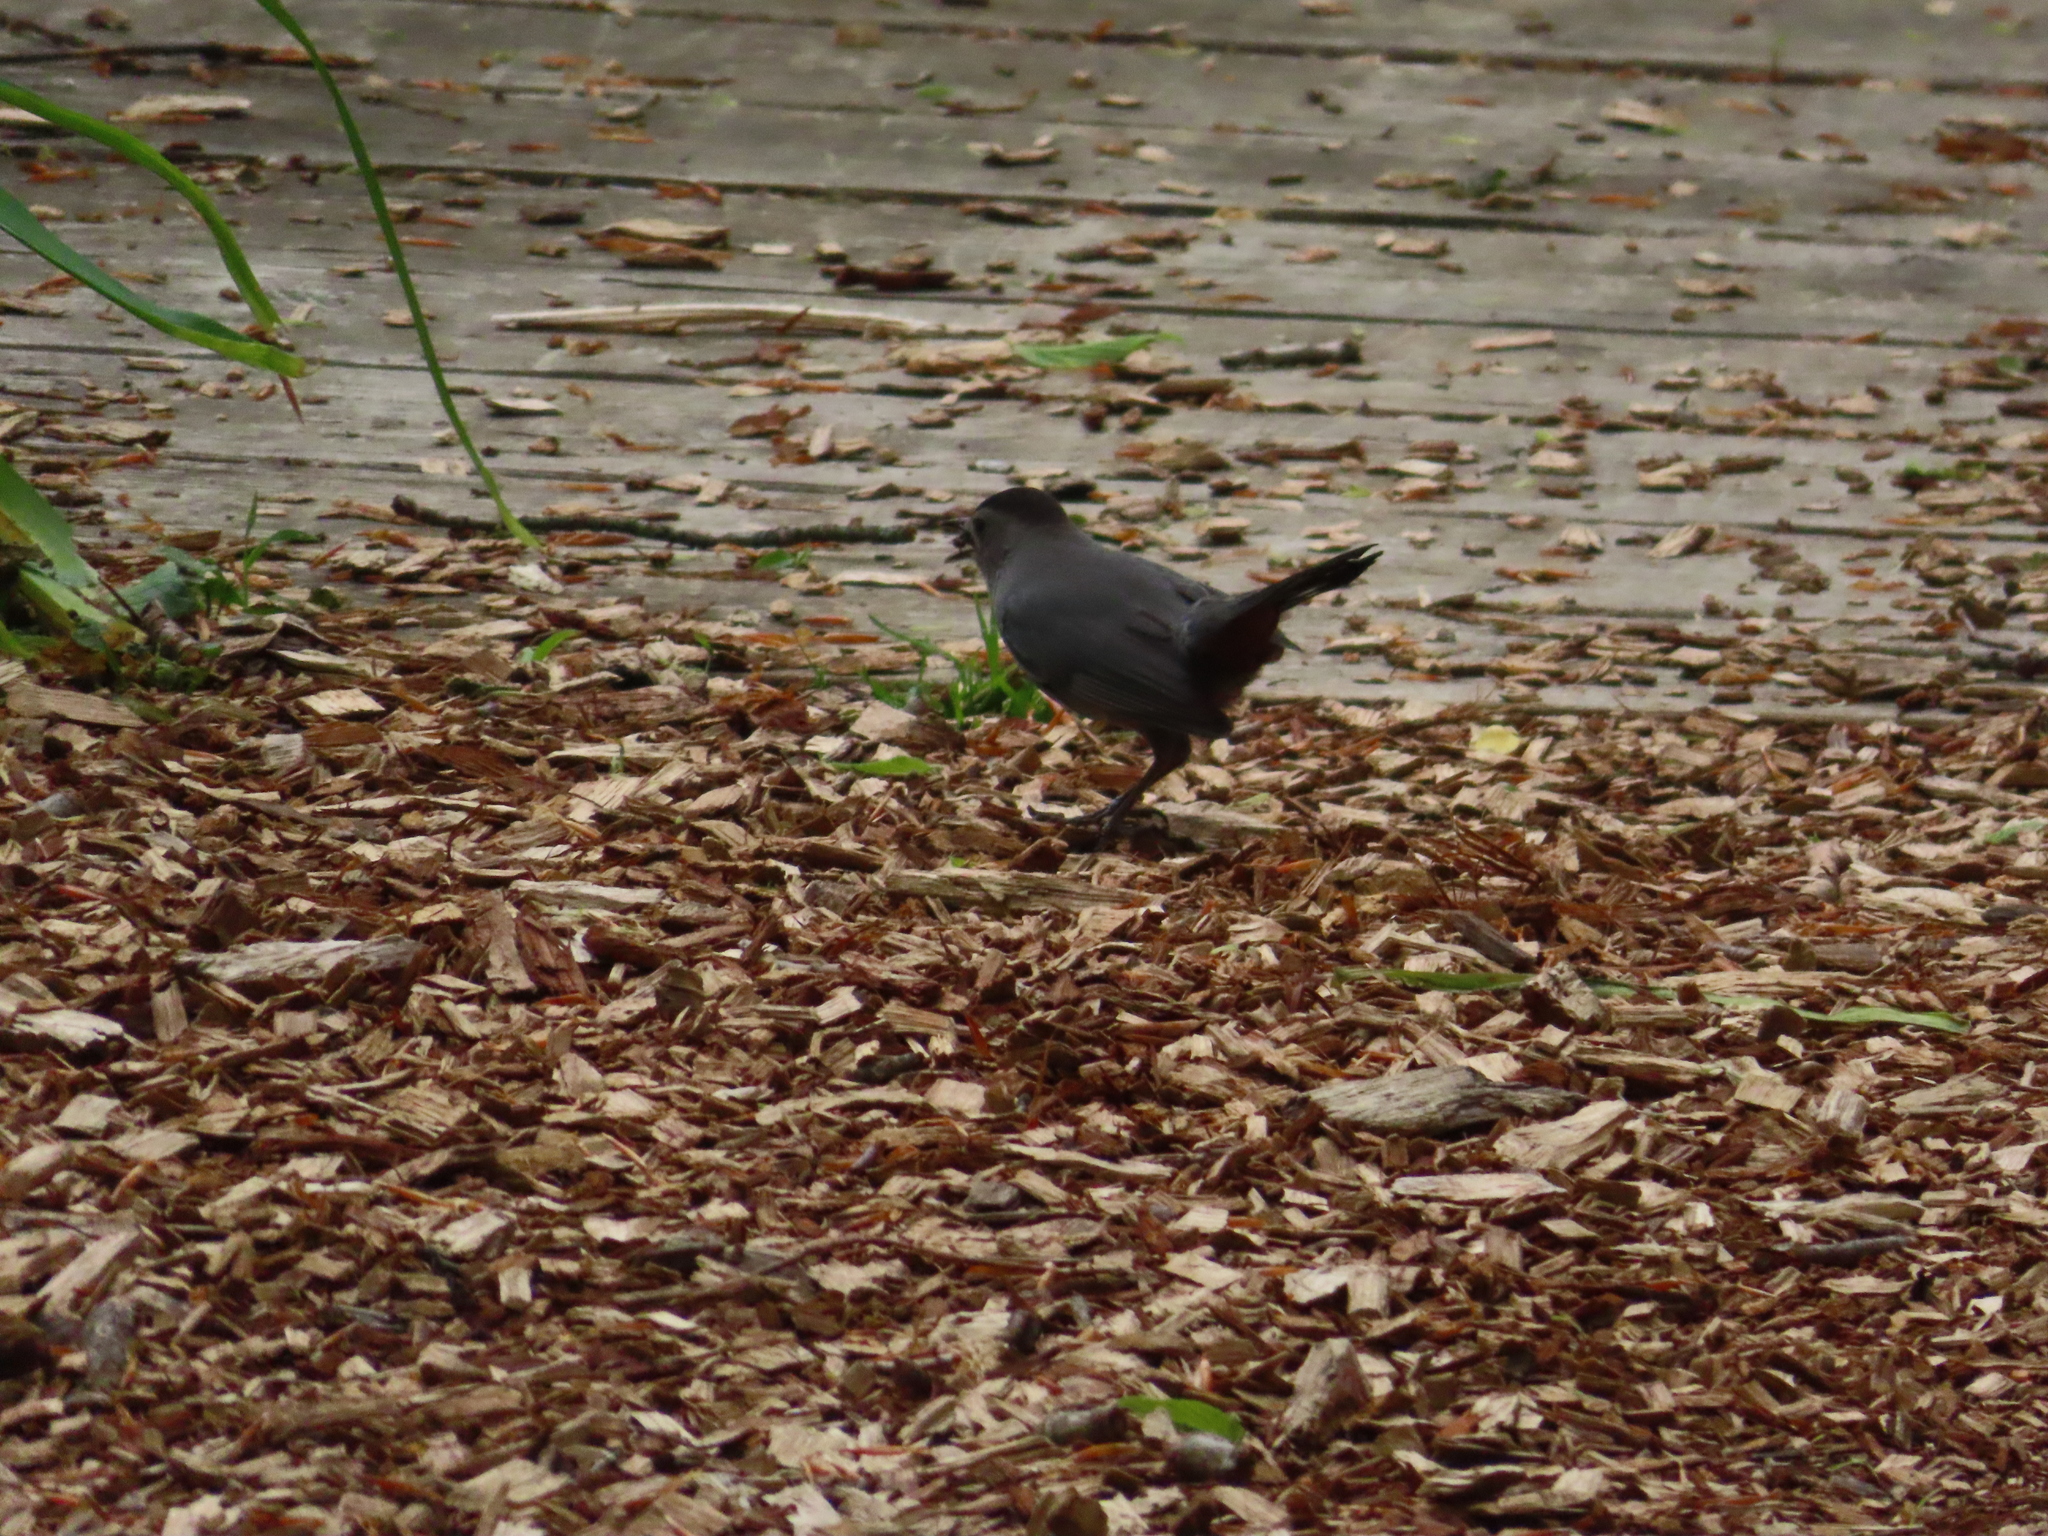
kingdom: Animalia
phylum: Chordata
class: Aves
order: Passeriformes
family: Mimidae
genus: Dumetella
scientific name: Dumetella carolinensis
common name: Gray catbird
